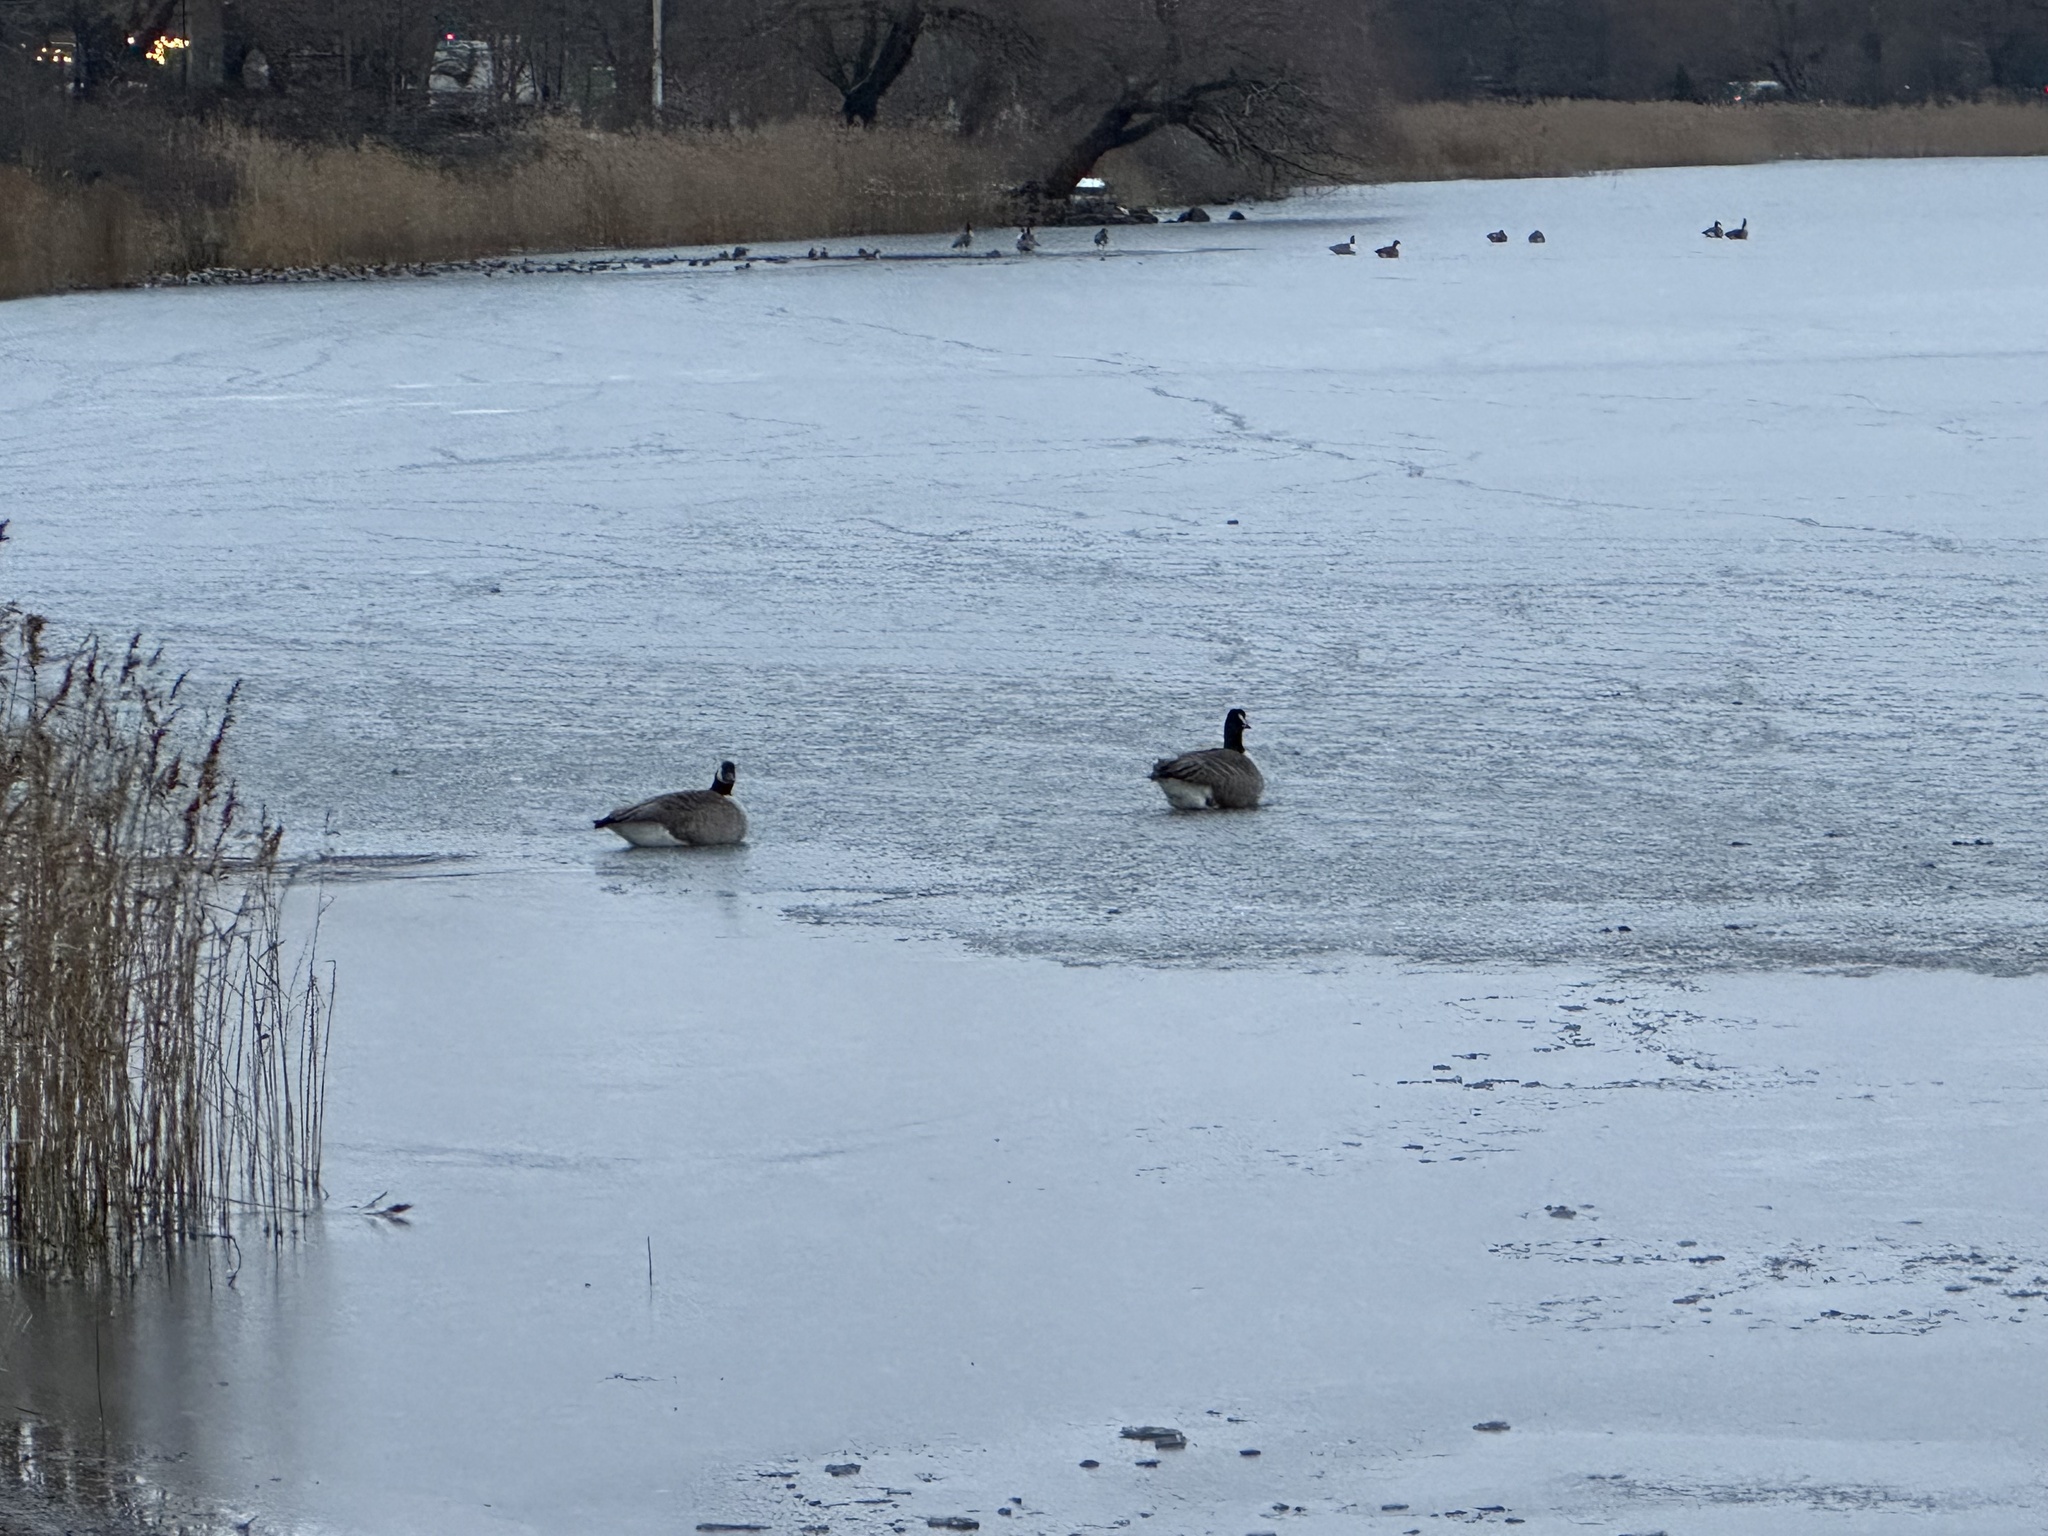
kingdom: Animalia
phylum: Chordata
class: Aves
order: Anseriformes
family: Anatidae
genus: Branta
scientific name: Branta canadensis
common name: Canada goose
